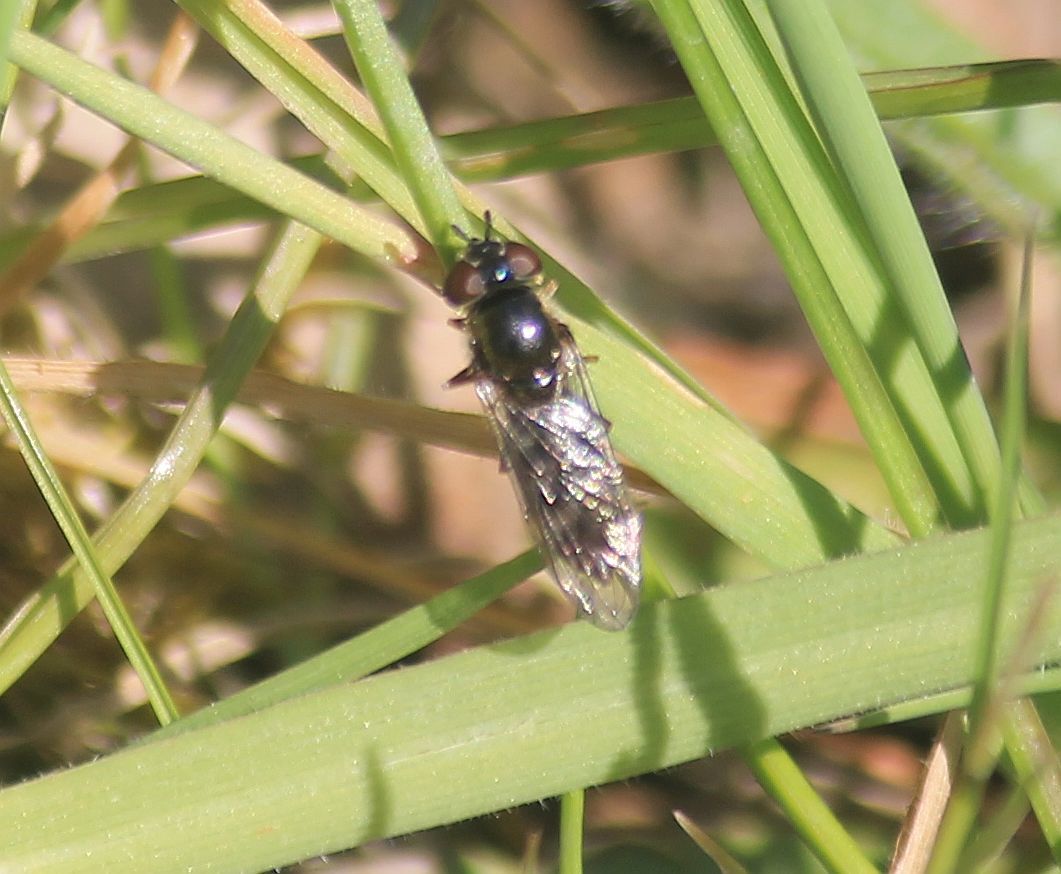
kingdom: Animalia
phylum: Arthropoda
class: Insecta
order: Diptera
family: Syrphidae
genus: Platycheirus
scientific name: Platycheirus albimanus
